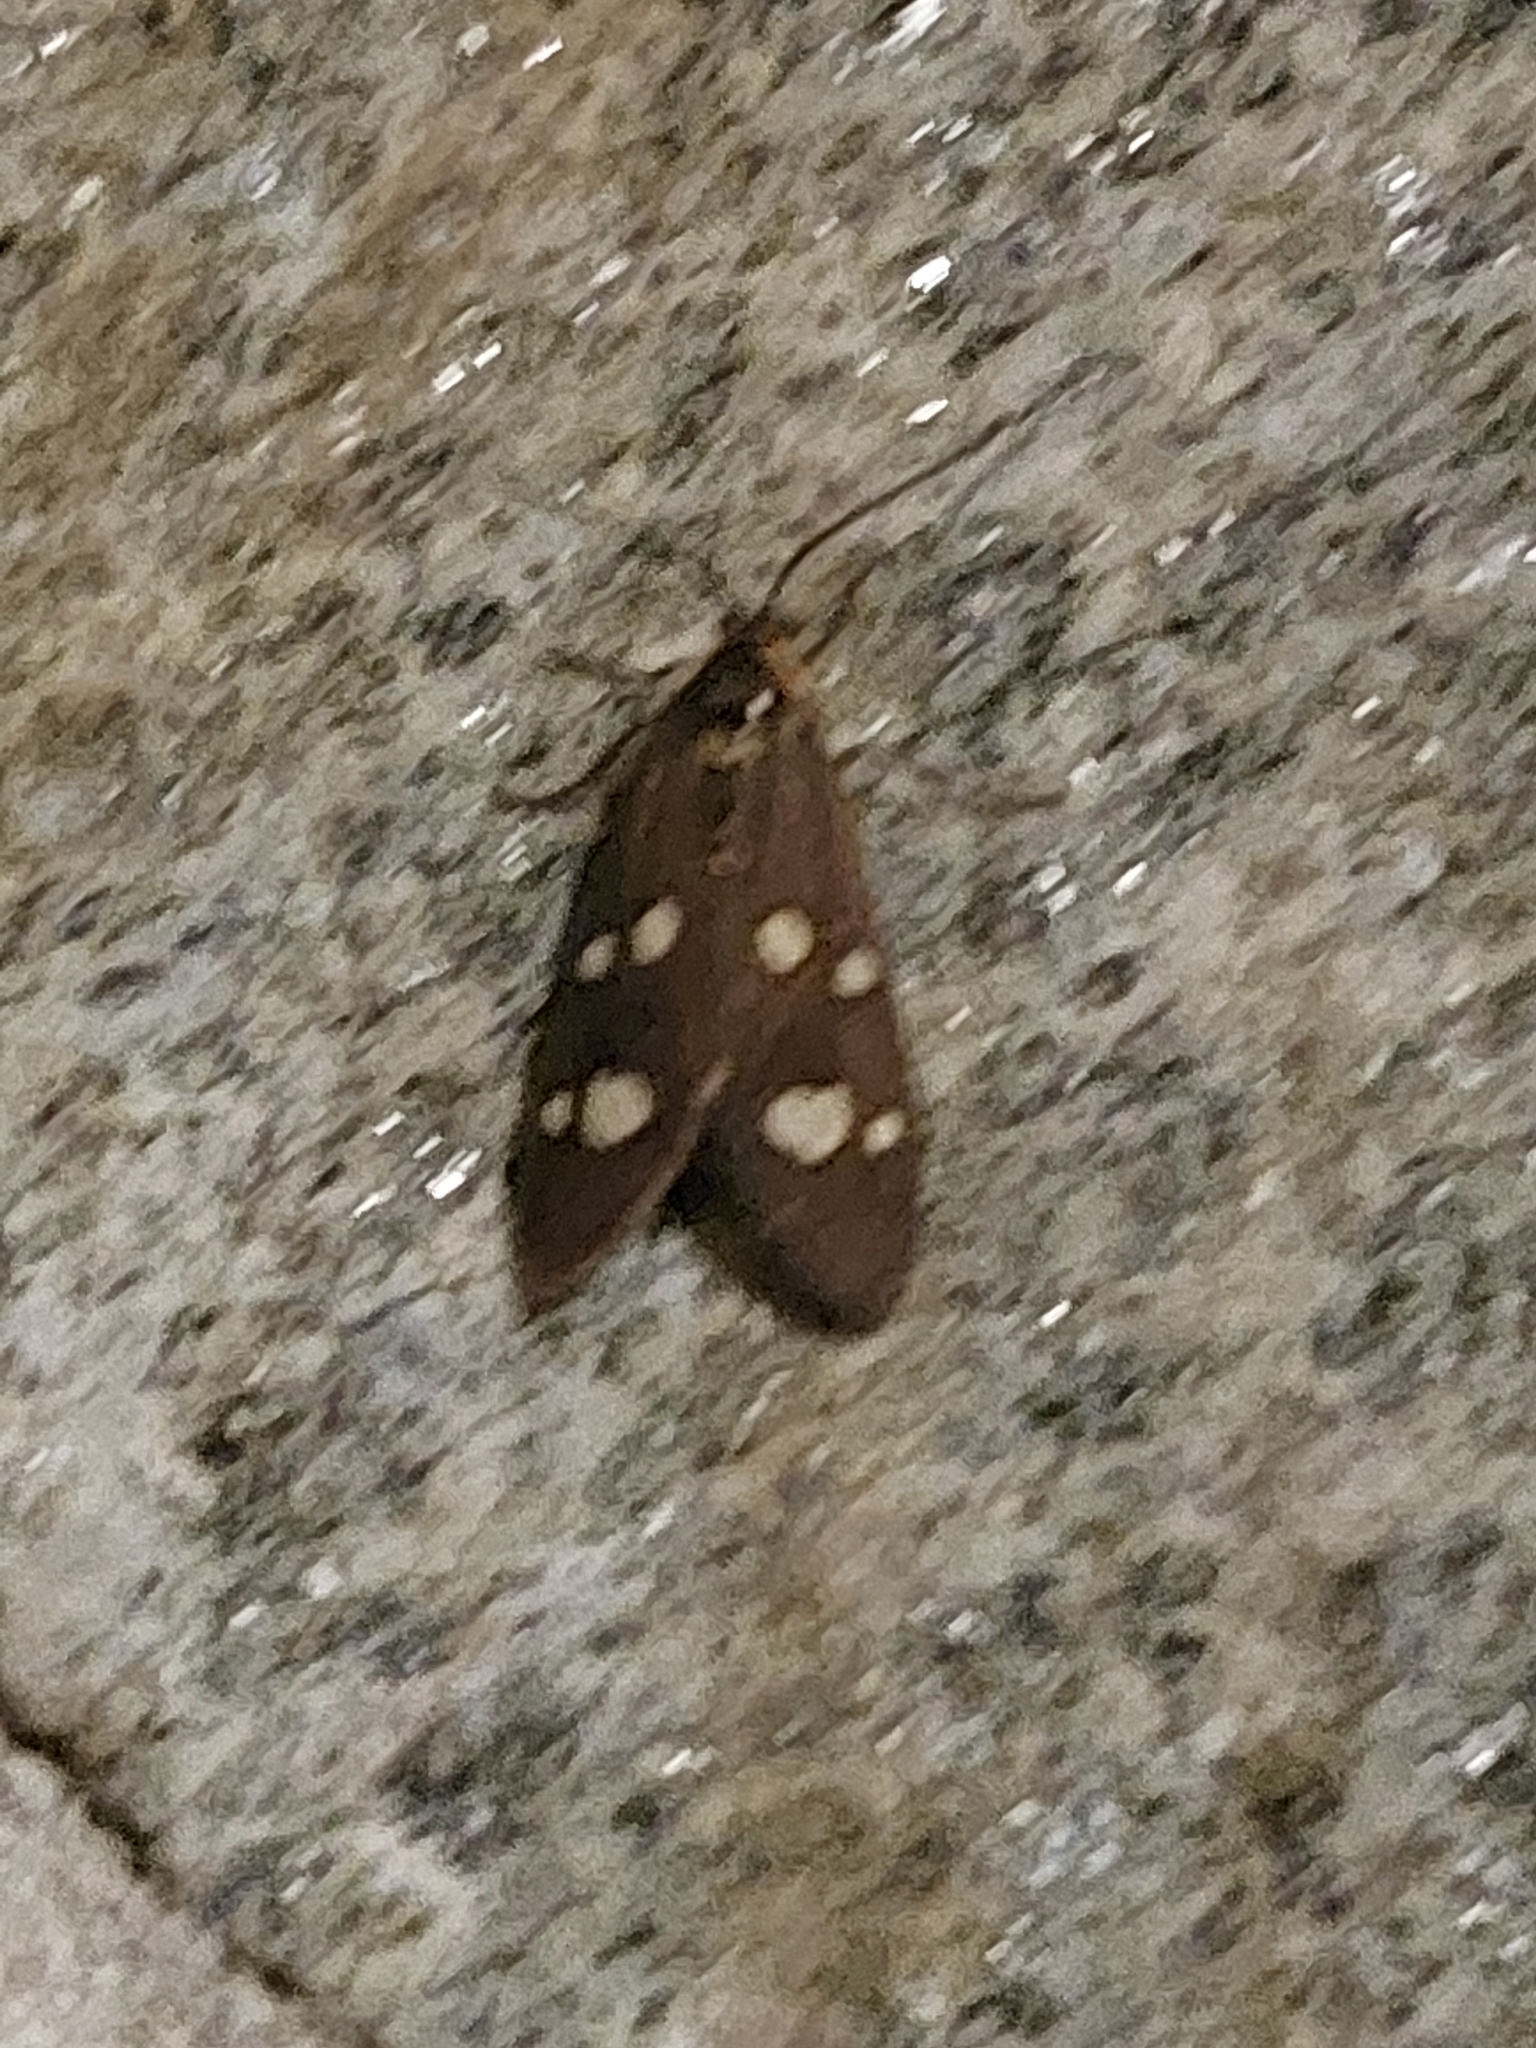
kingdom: Animalia
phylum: Arthropoda
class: Insecta
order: Lepidoptera
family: Erebidae
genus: Dysauxes
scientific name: Dysauxes punctata
